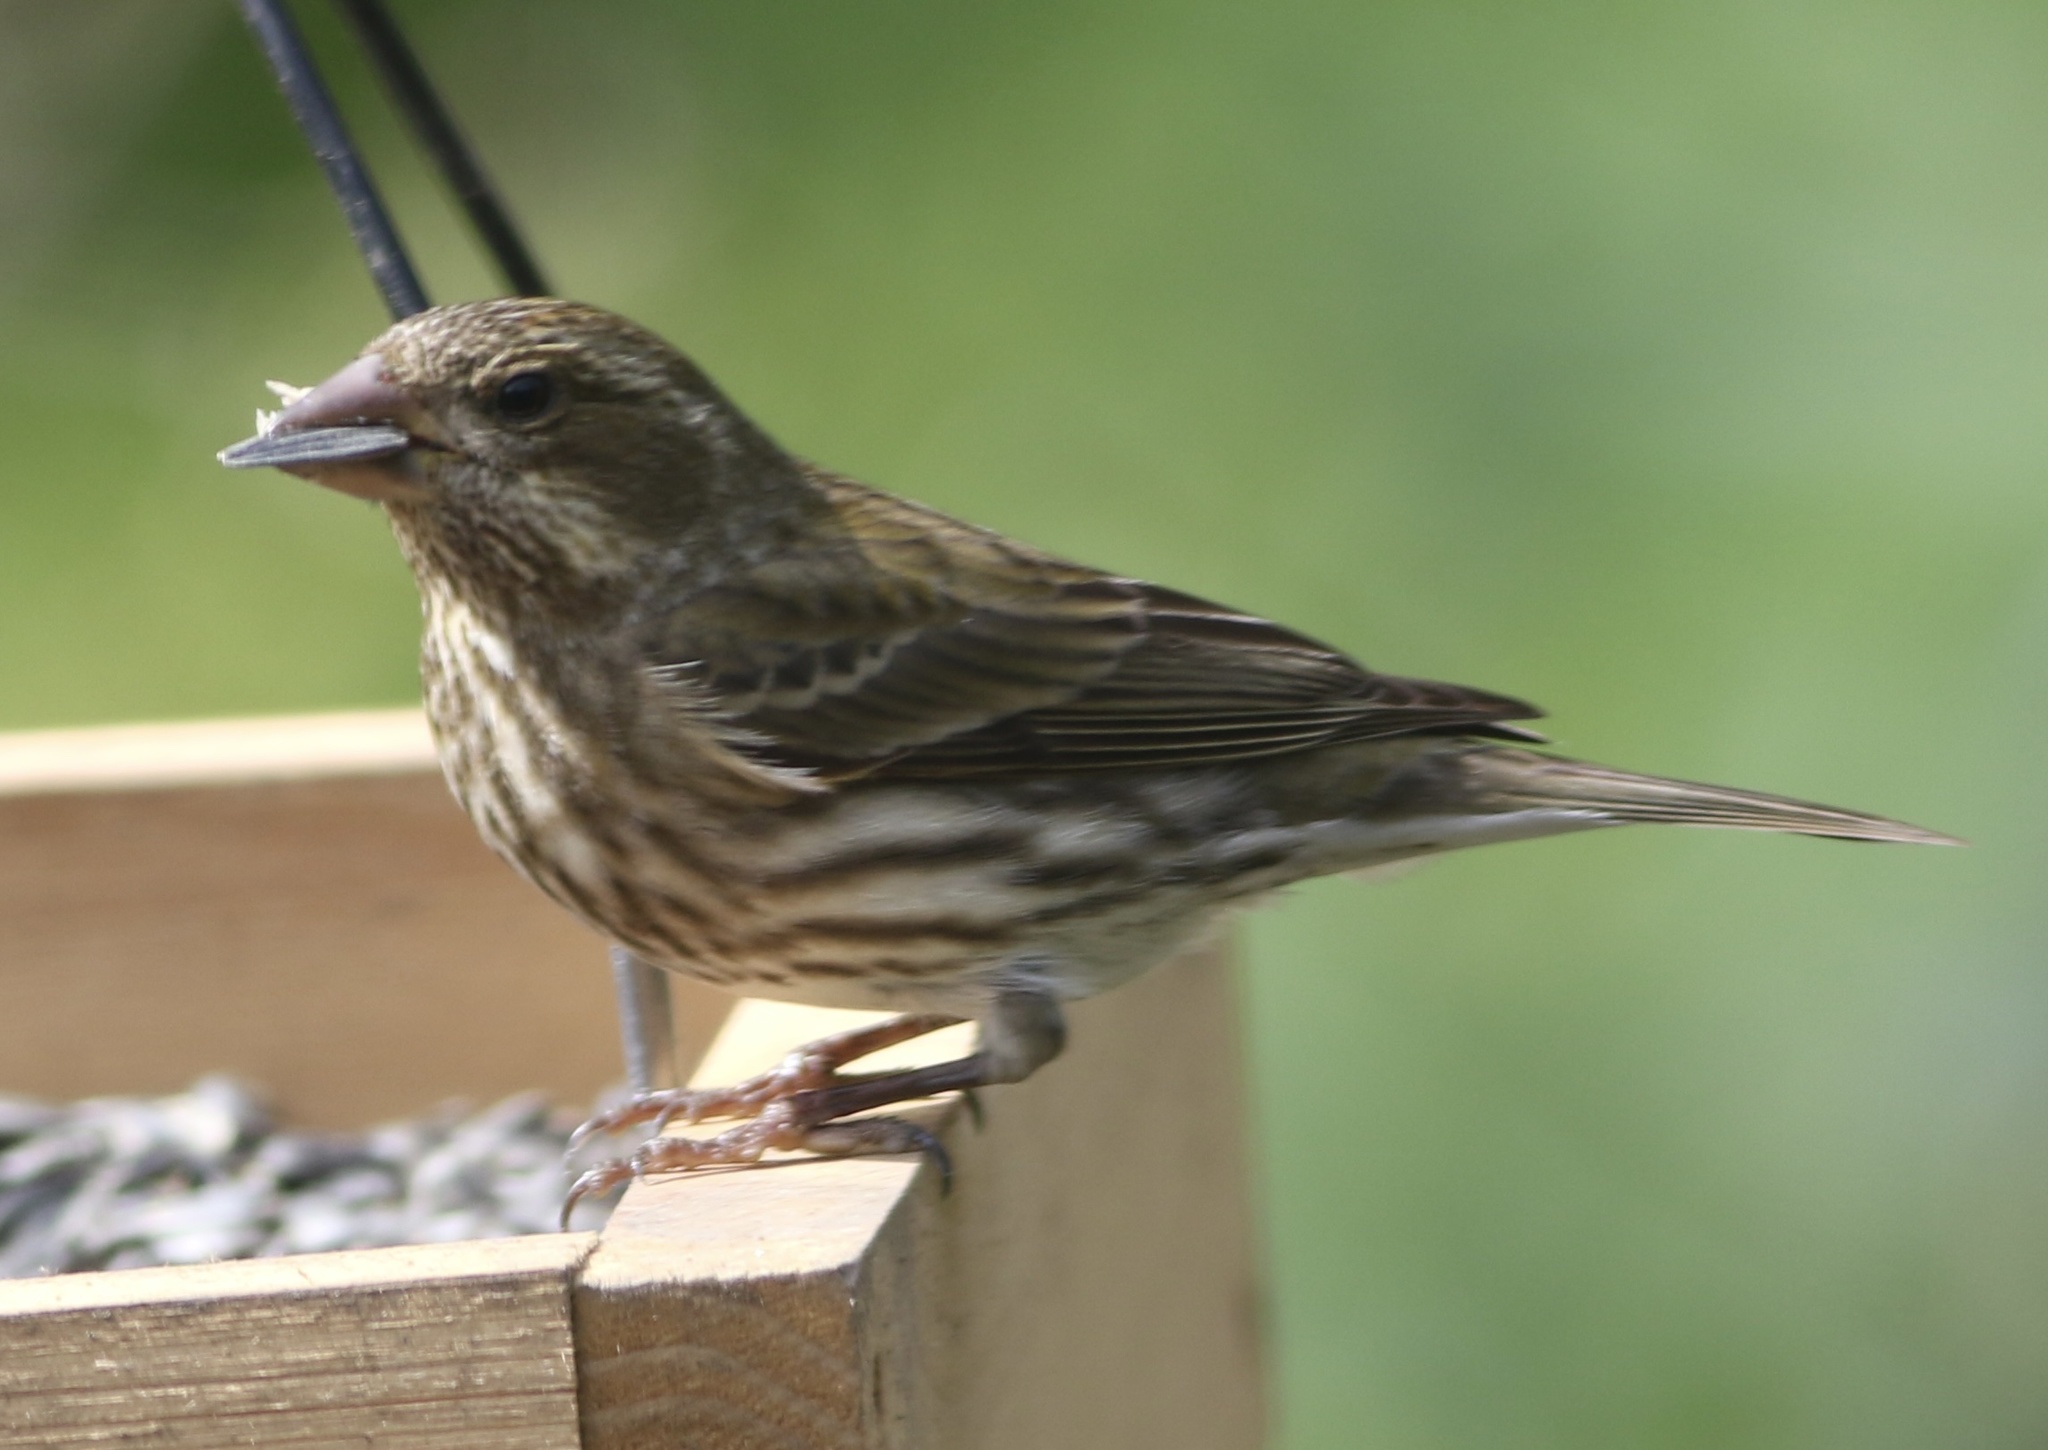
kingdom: Animalia
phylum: Chordata
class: Aves
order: Passeriformes
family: Fringillidae
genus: Haemorhous
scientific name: Haemorhous purpureus
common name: Purple finch
